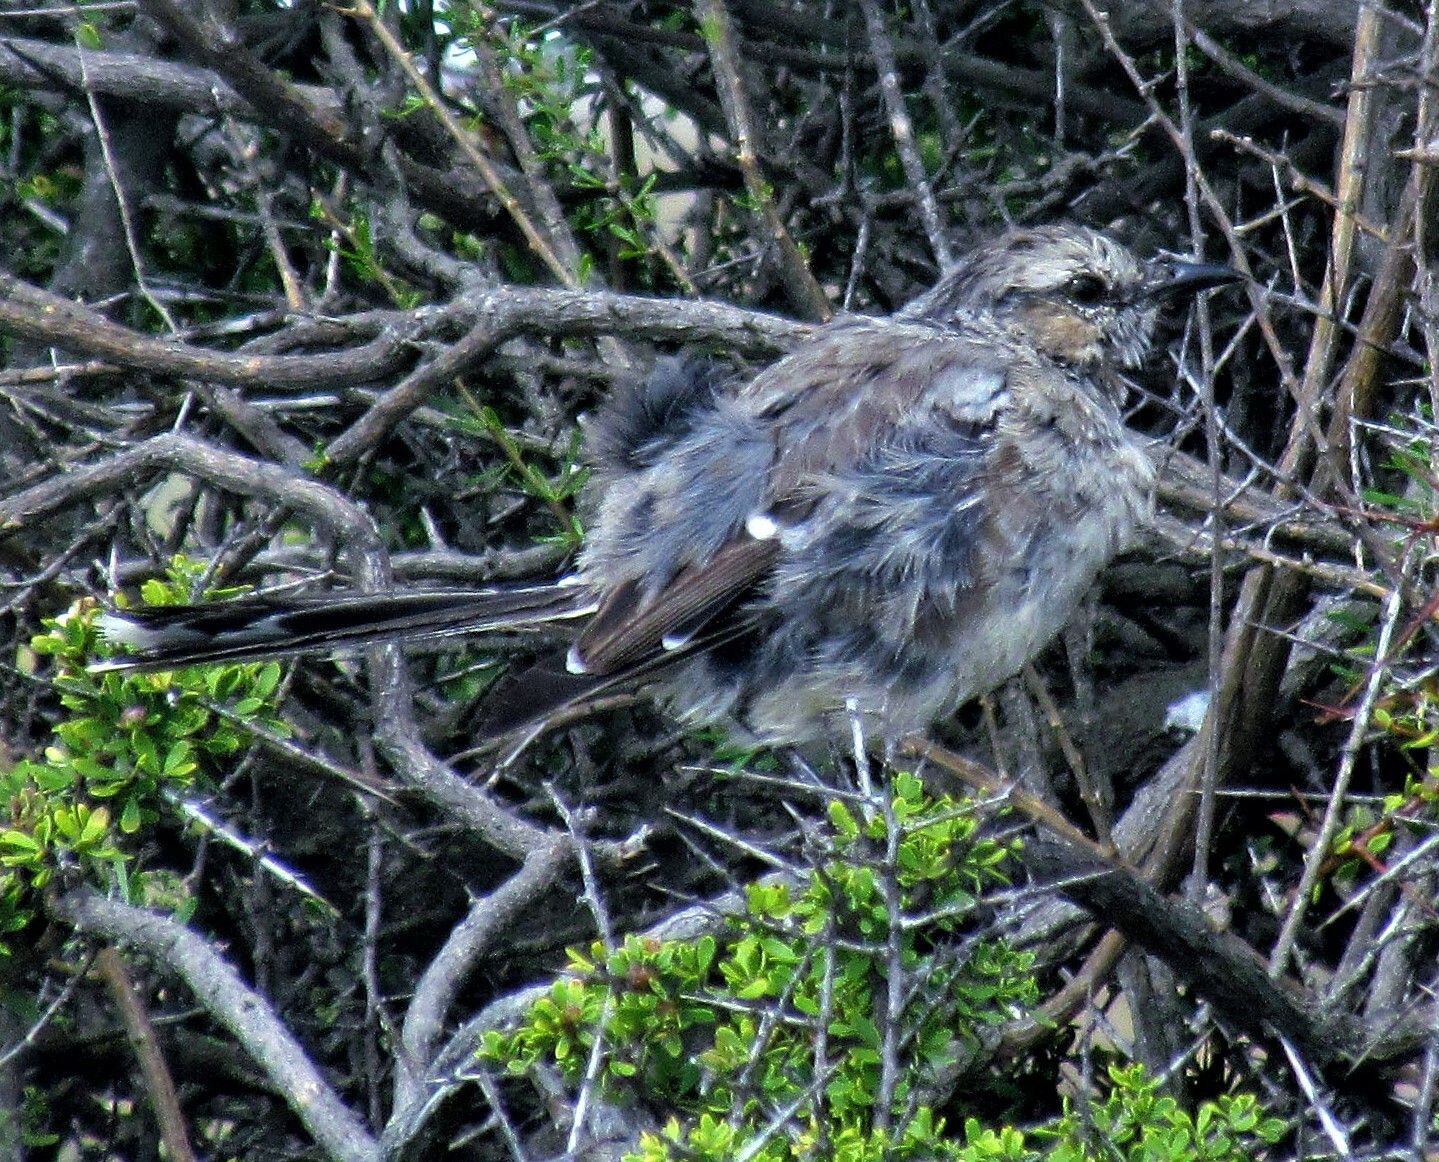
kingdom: Animalia
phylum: Chordata
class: Aves
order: Passeriformes
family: Mimidae
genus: Mimus
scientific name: Mimus patagonicus
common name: Patagonian mockingbird
